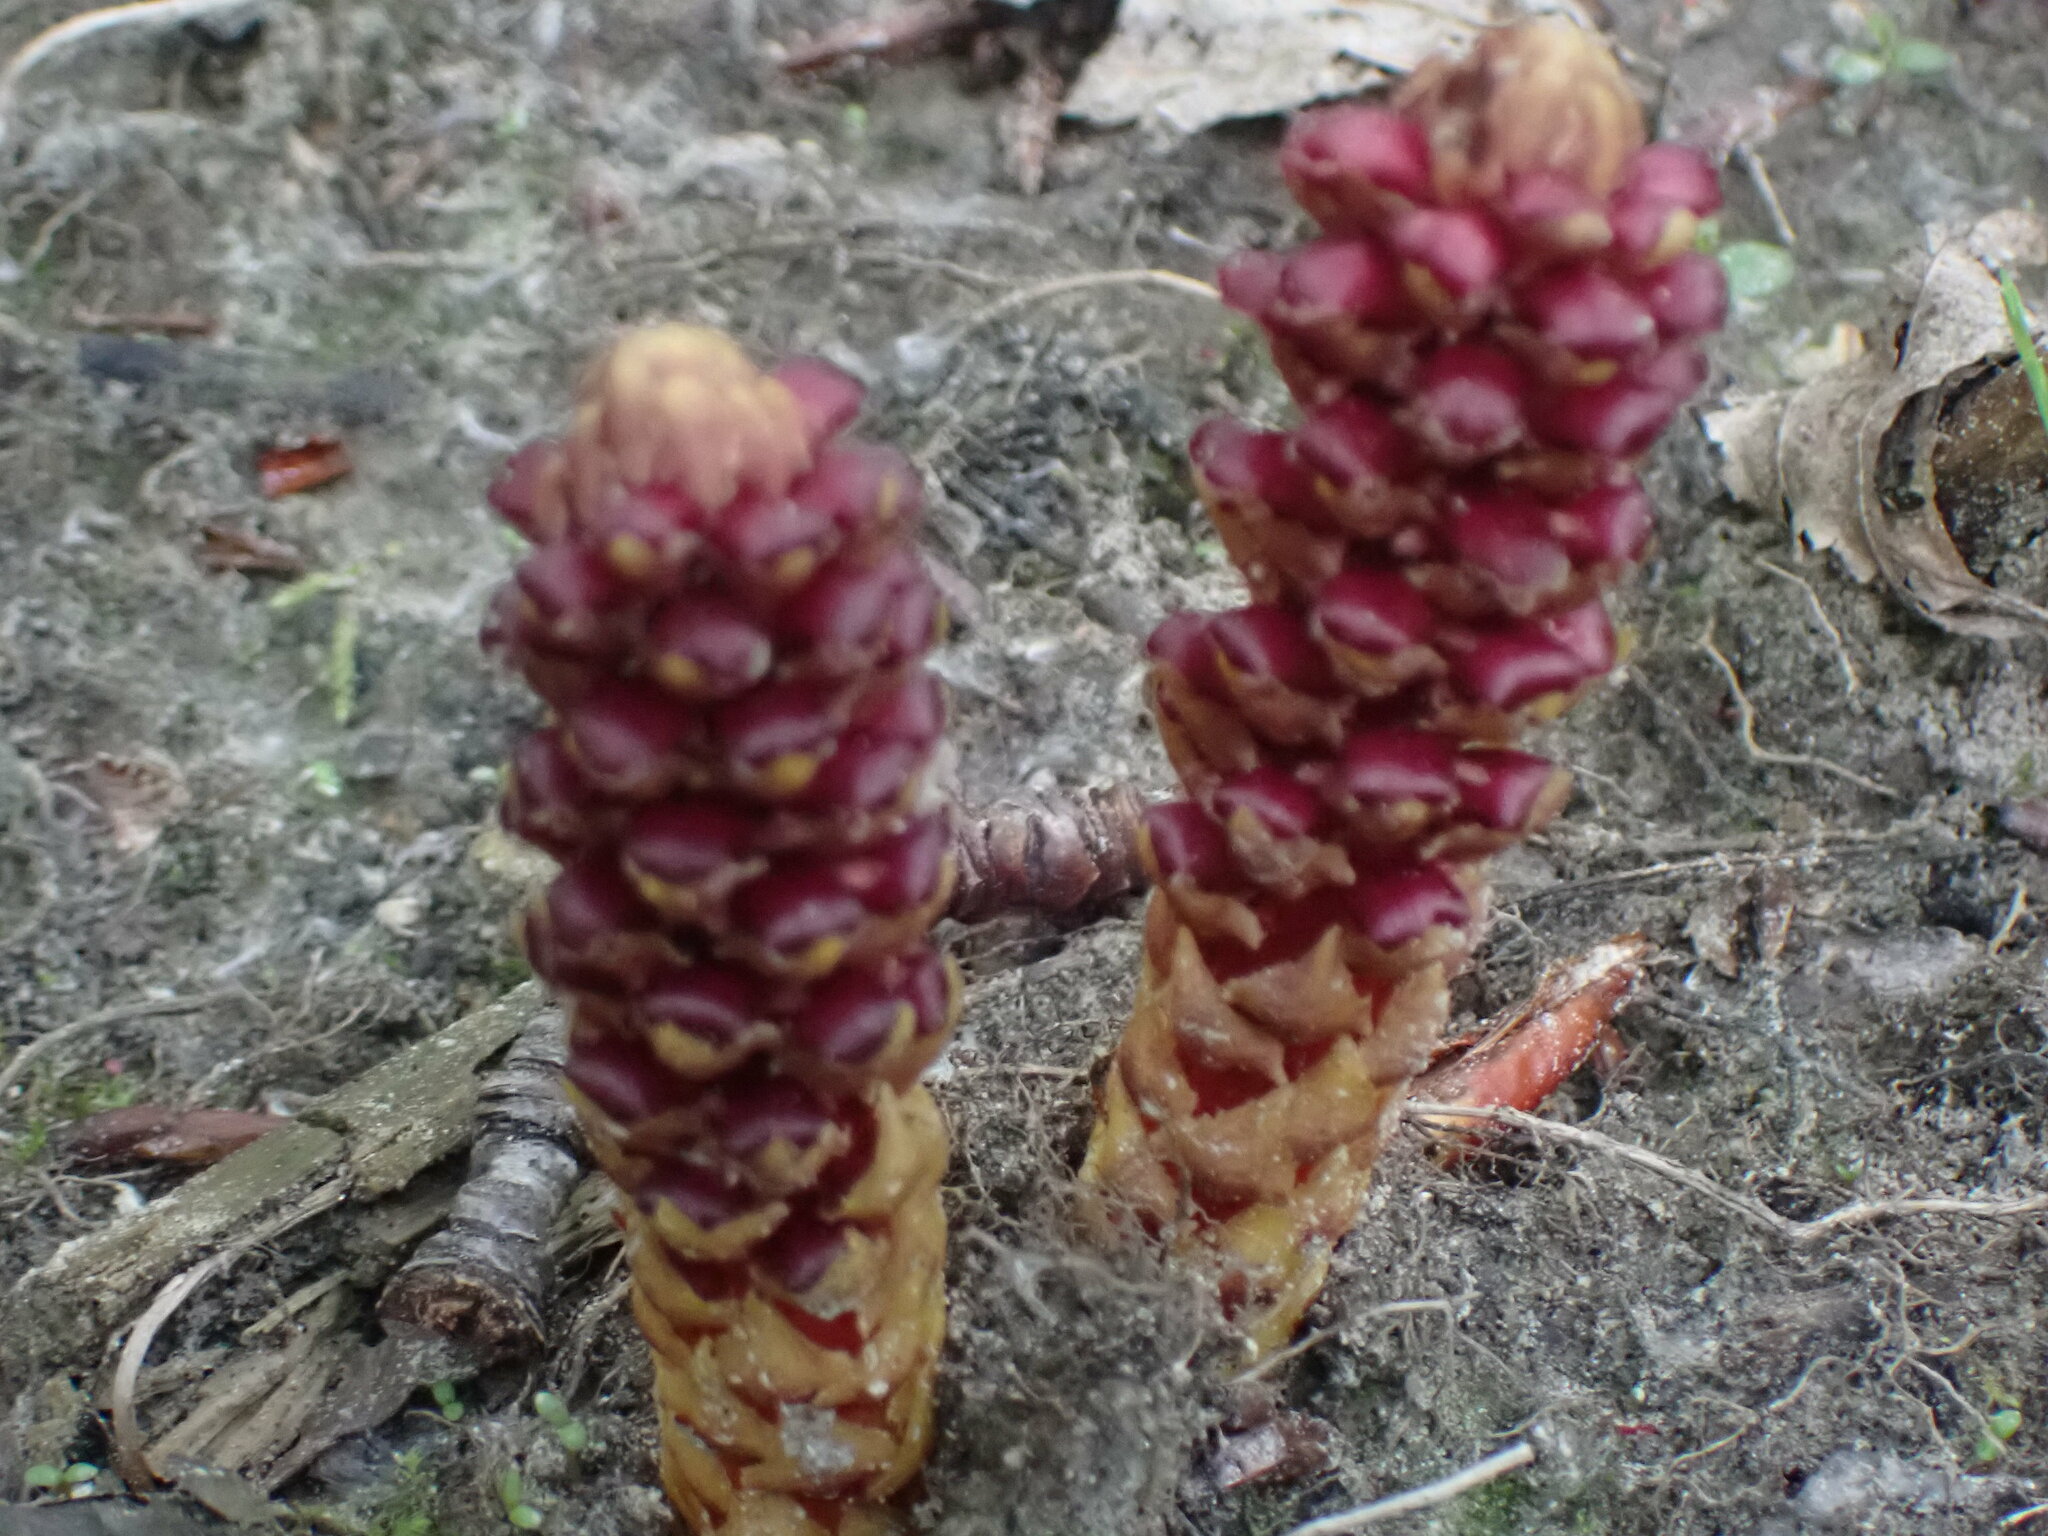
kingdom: Plantae
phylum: Tracheophyta
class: Magnoliopsida
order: Lamiales
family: Orobanchaceae
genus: Boschniakia
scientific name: Boschniakia rossica
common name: Poque
